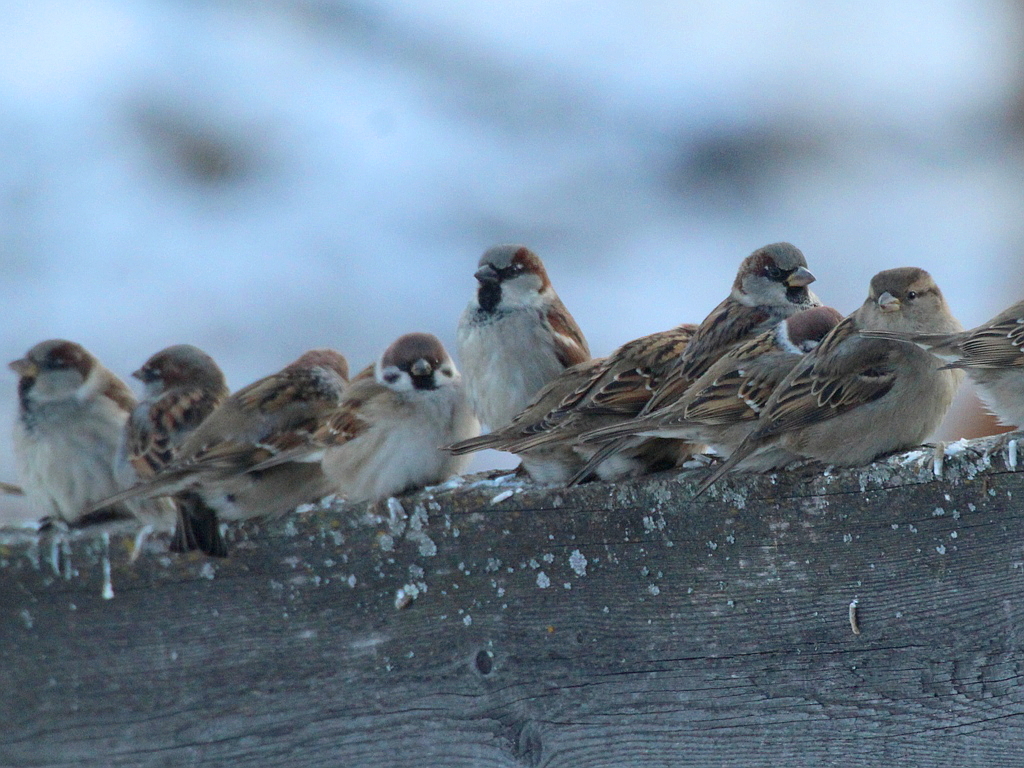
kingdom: Animalia
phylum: Chordata
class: Aves
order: Passeriformes
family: Passeridae
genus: Passer
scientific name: Passer domesticus
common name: House sparrow
